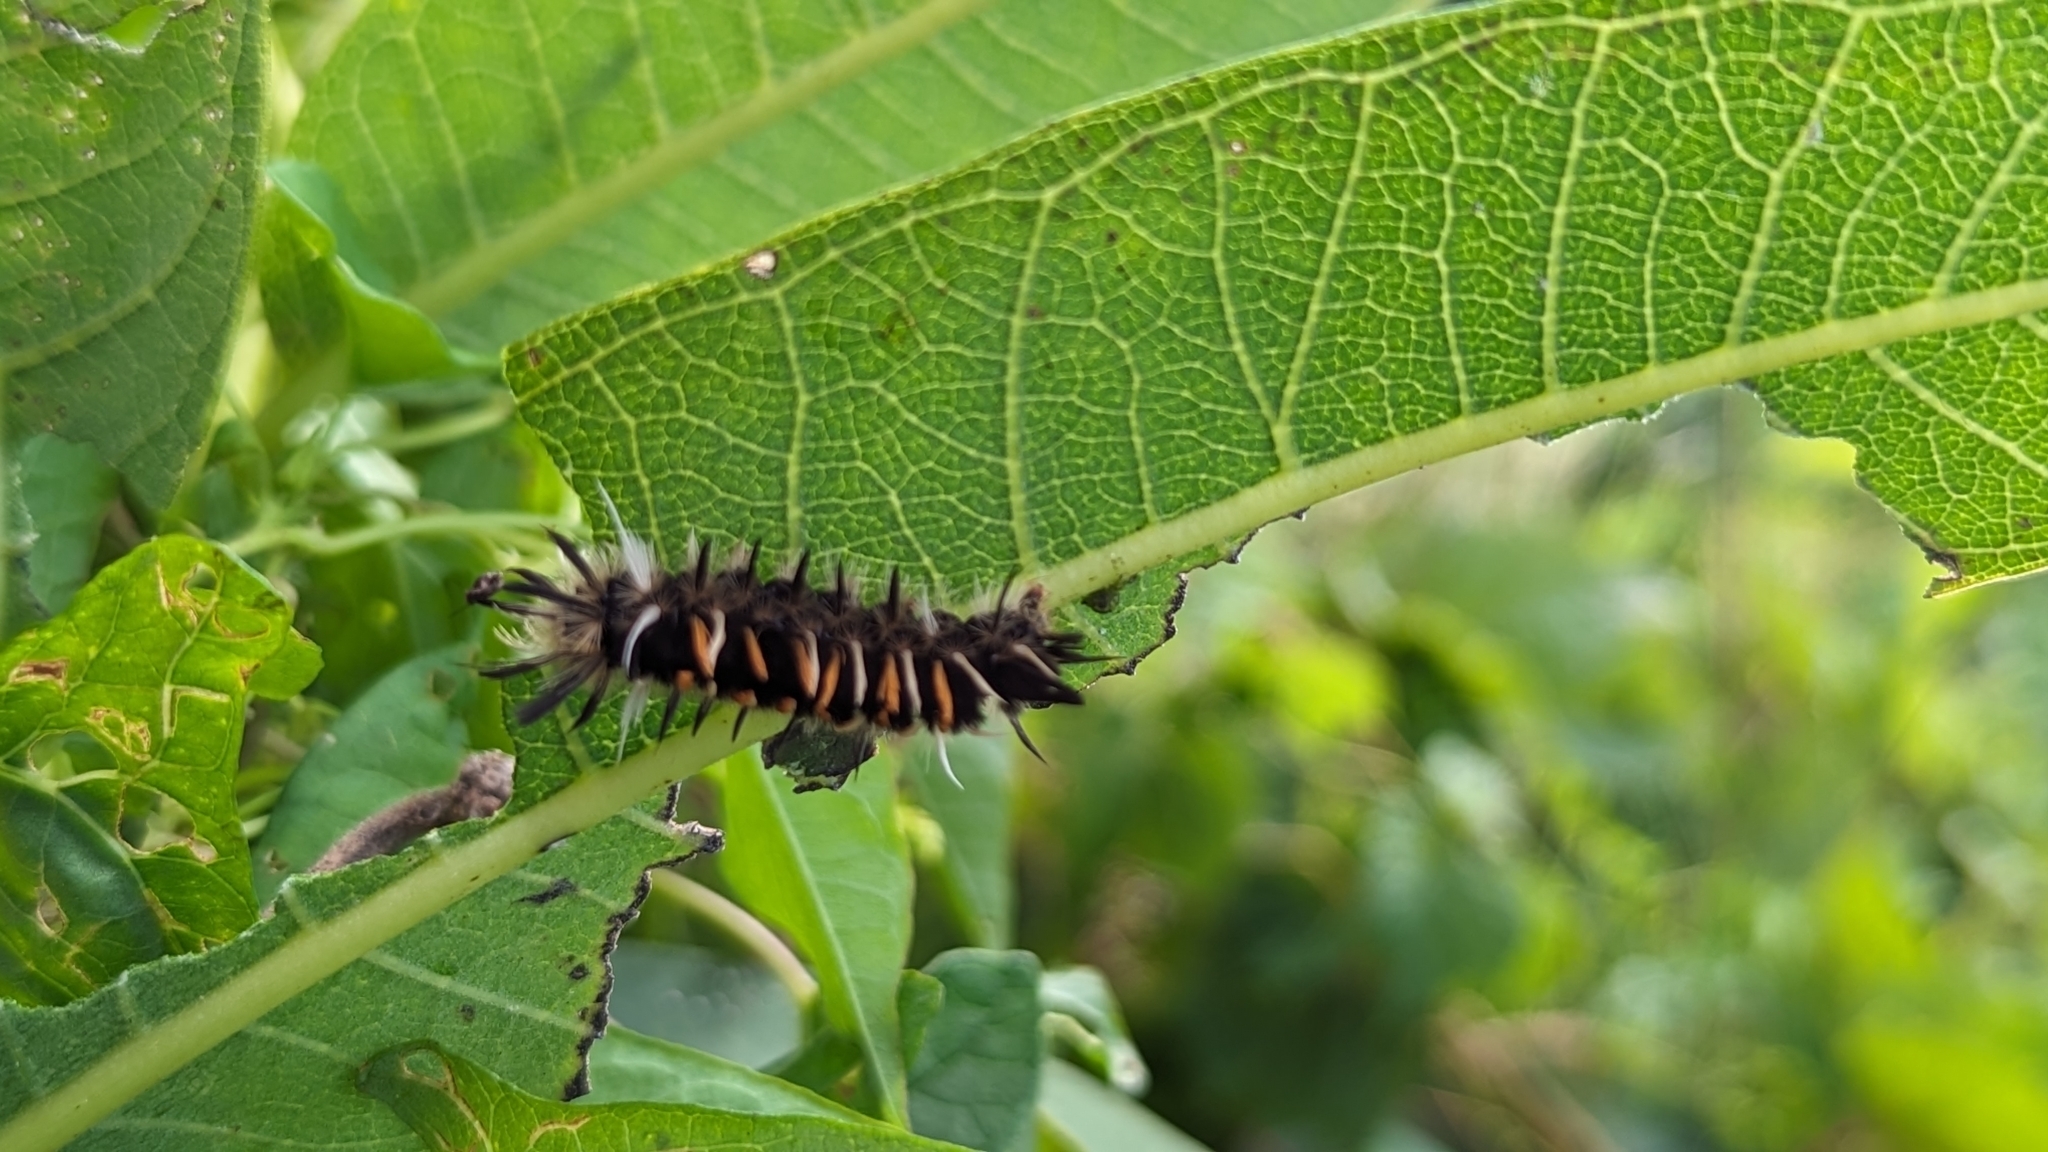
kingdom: Animalia
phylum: Arthropoda
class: Insecta
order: Lepidoptera
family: Erebidae
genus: Euchaetes
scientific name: Euchaetes egle
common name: Milkweed tussock moth
